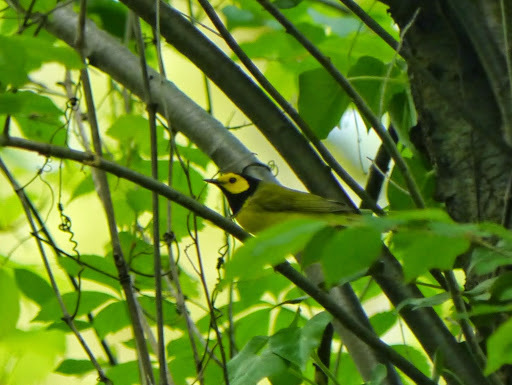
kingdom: Animalia
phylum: Chordata
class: Aves
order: Passeriformes
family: Parulidae
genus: Setophaga
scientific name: Setophaga citrina
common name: Hooded warbler
